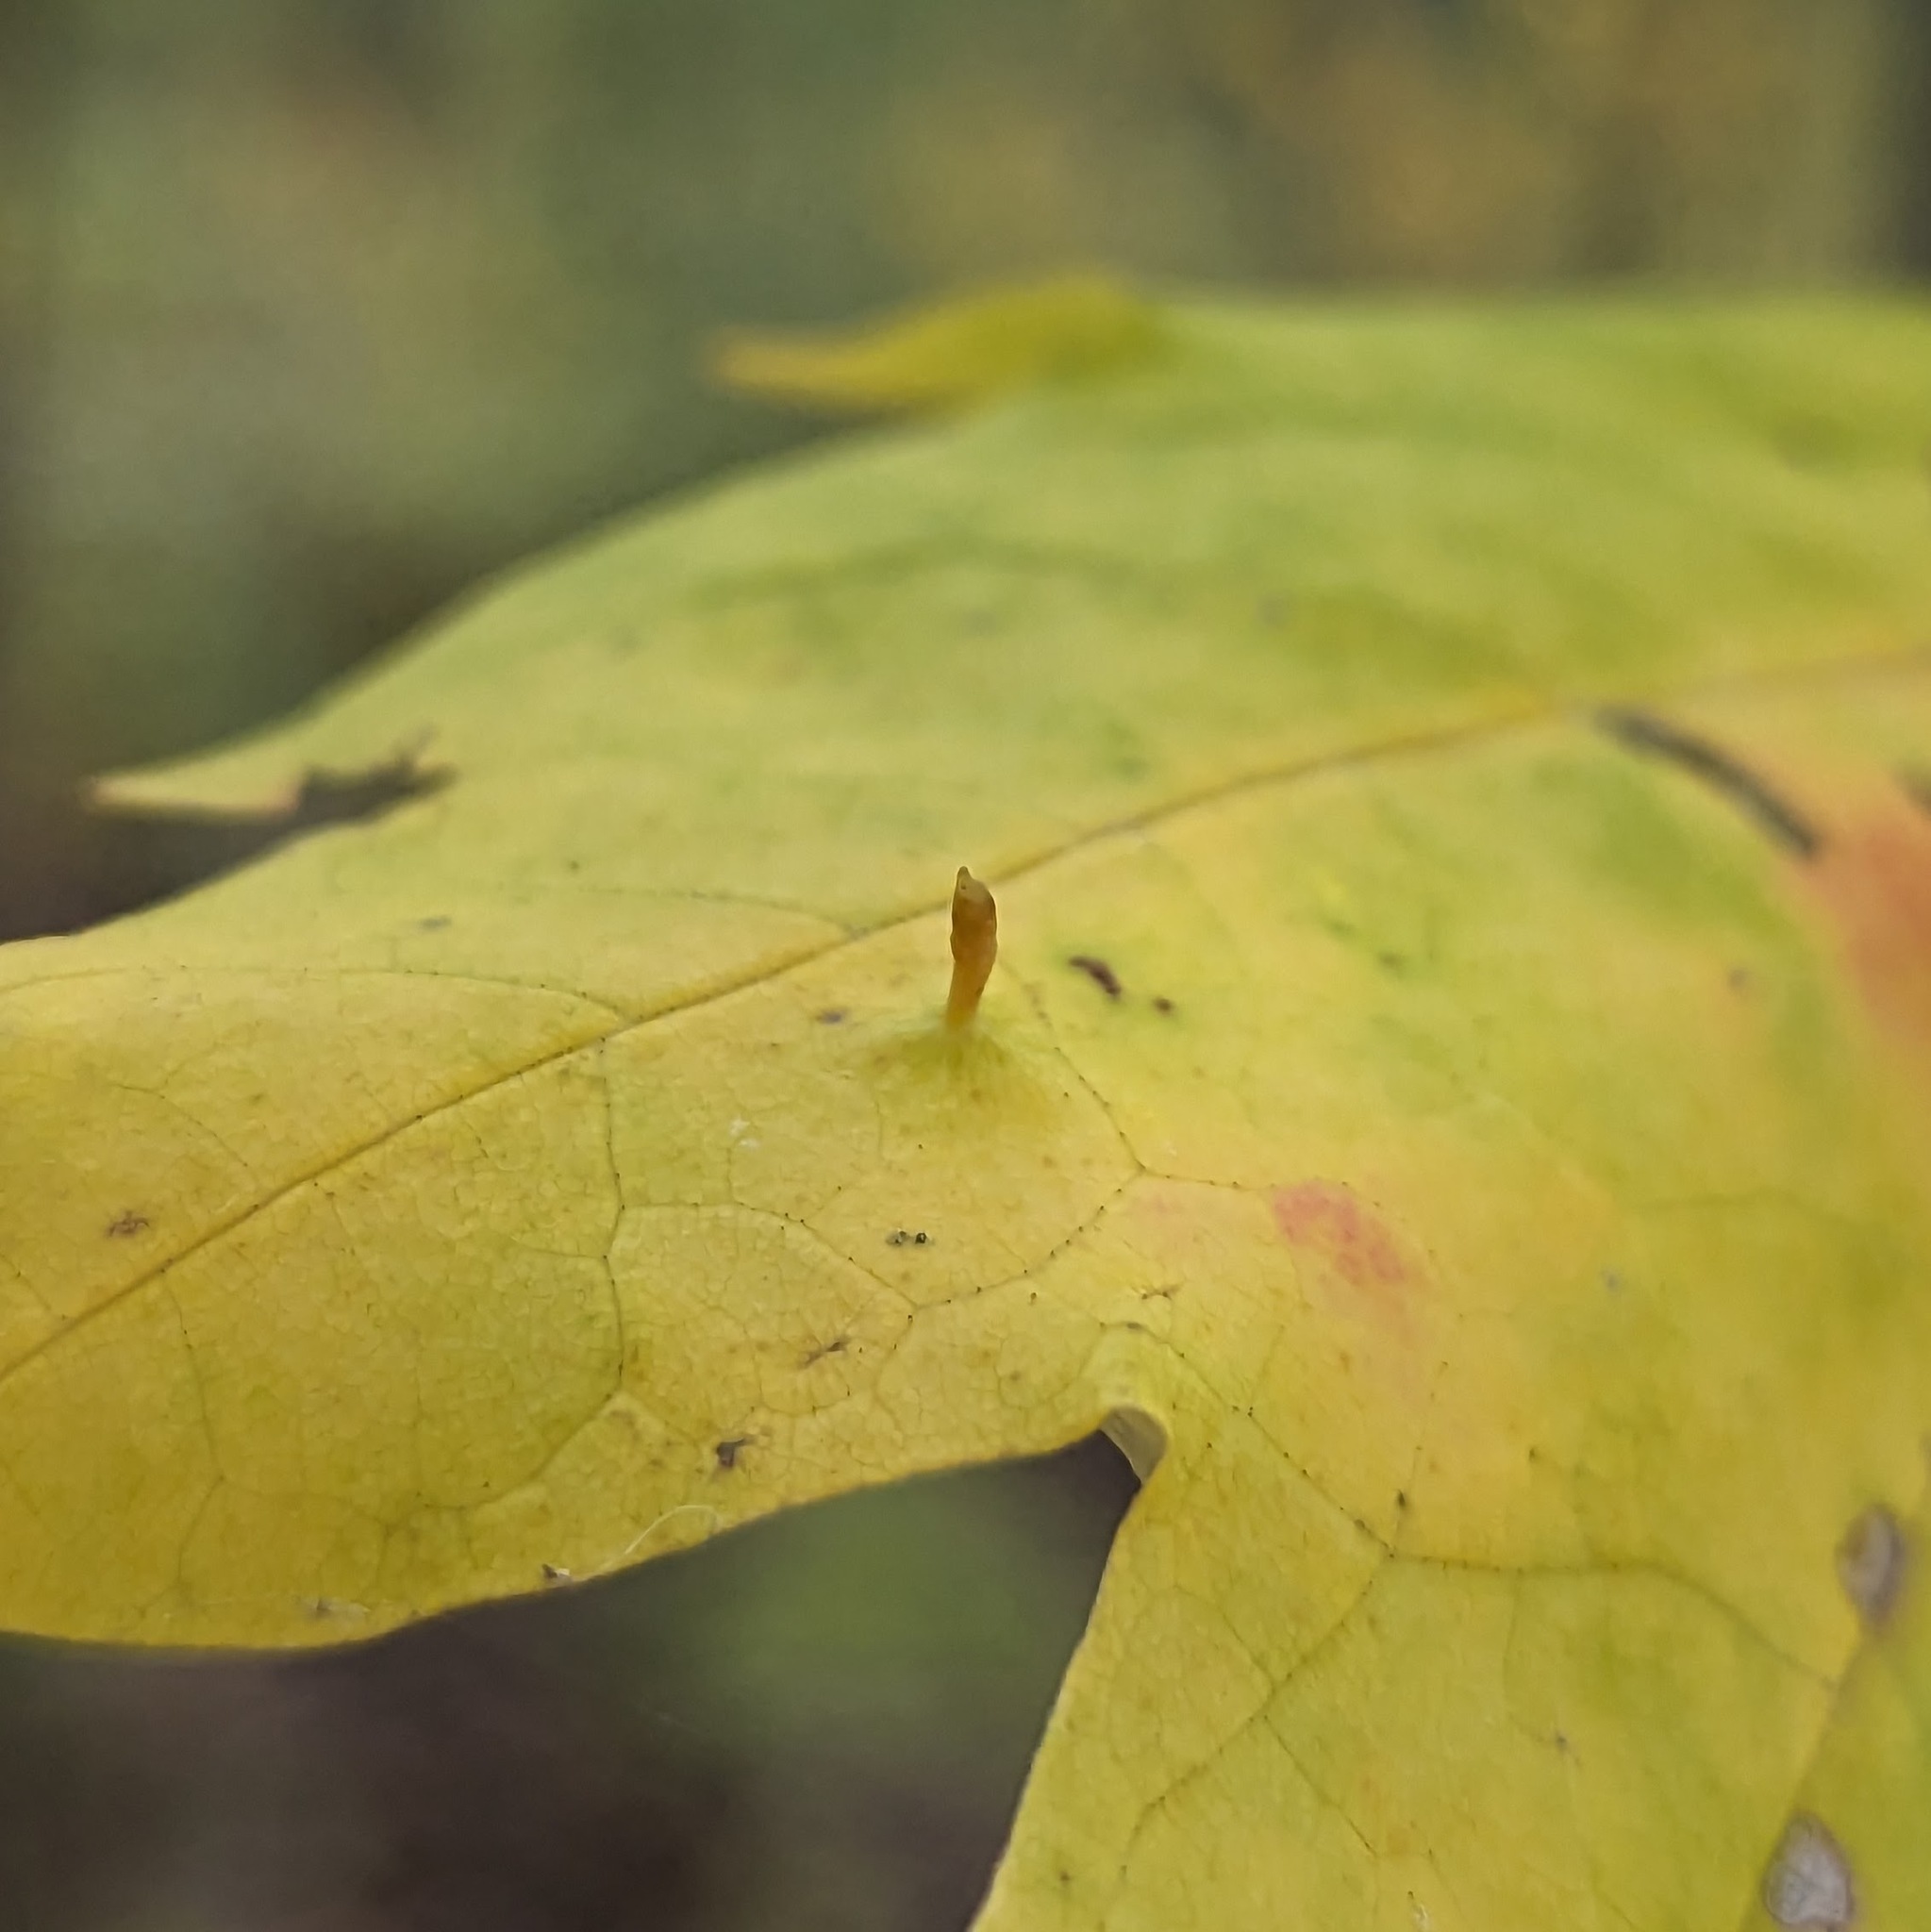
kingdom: Animalia
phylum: Arthropoda
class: Arachnida
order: Trombidiformes
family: Eriophyidae
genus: Vasates
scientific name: Vasates aceriscrumena
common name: Maple spindle gall mite
